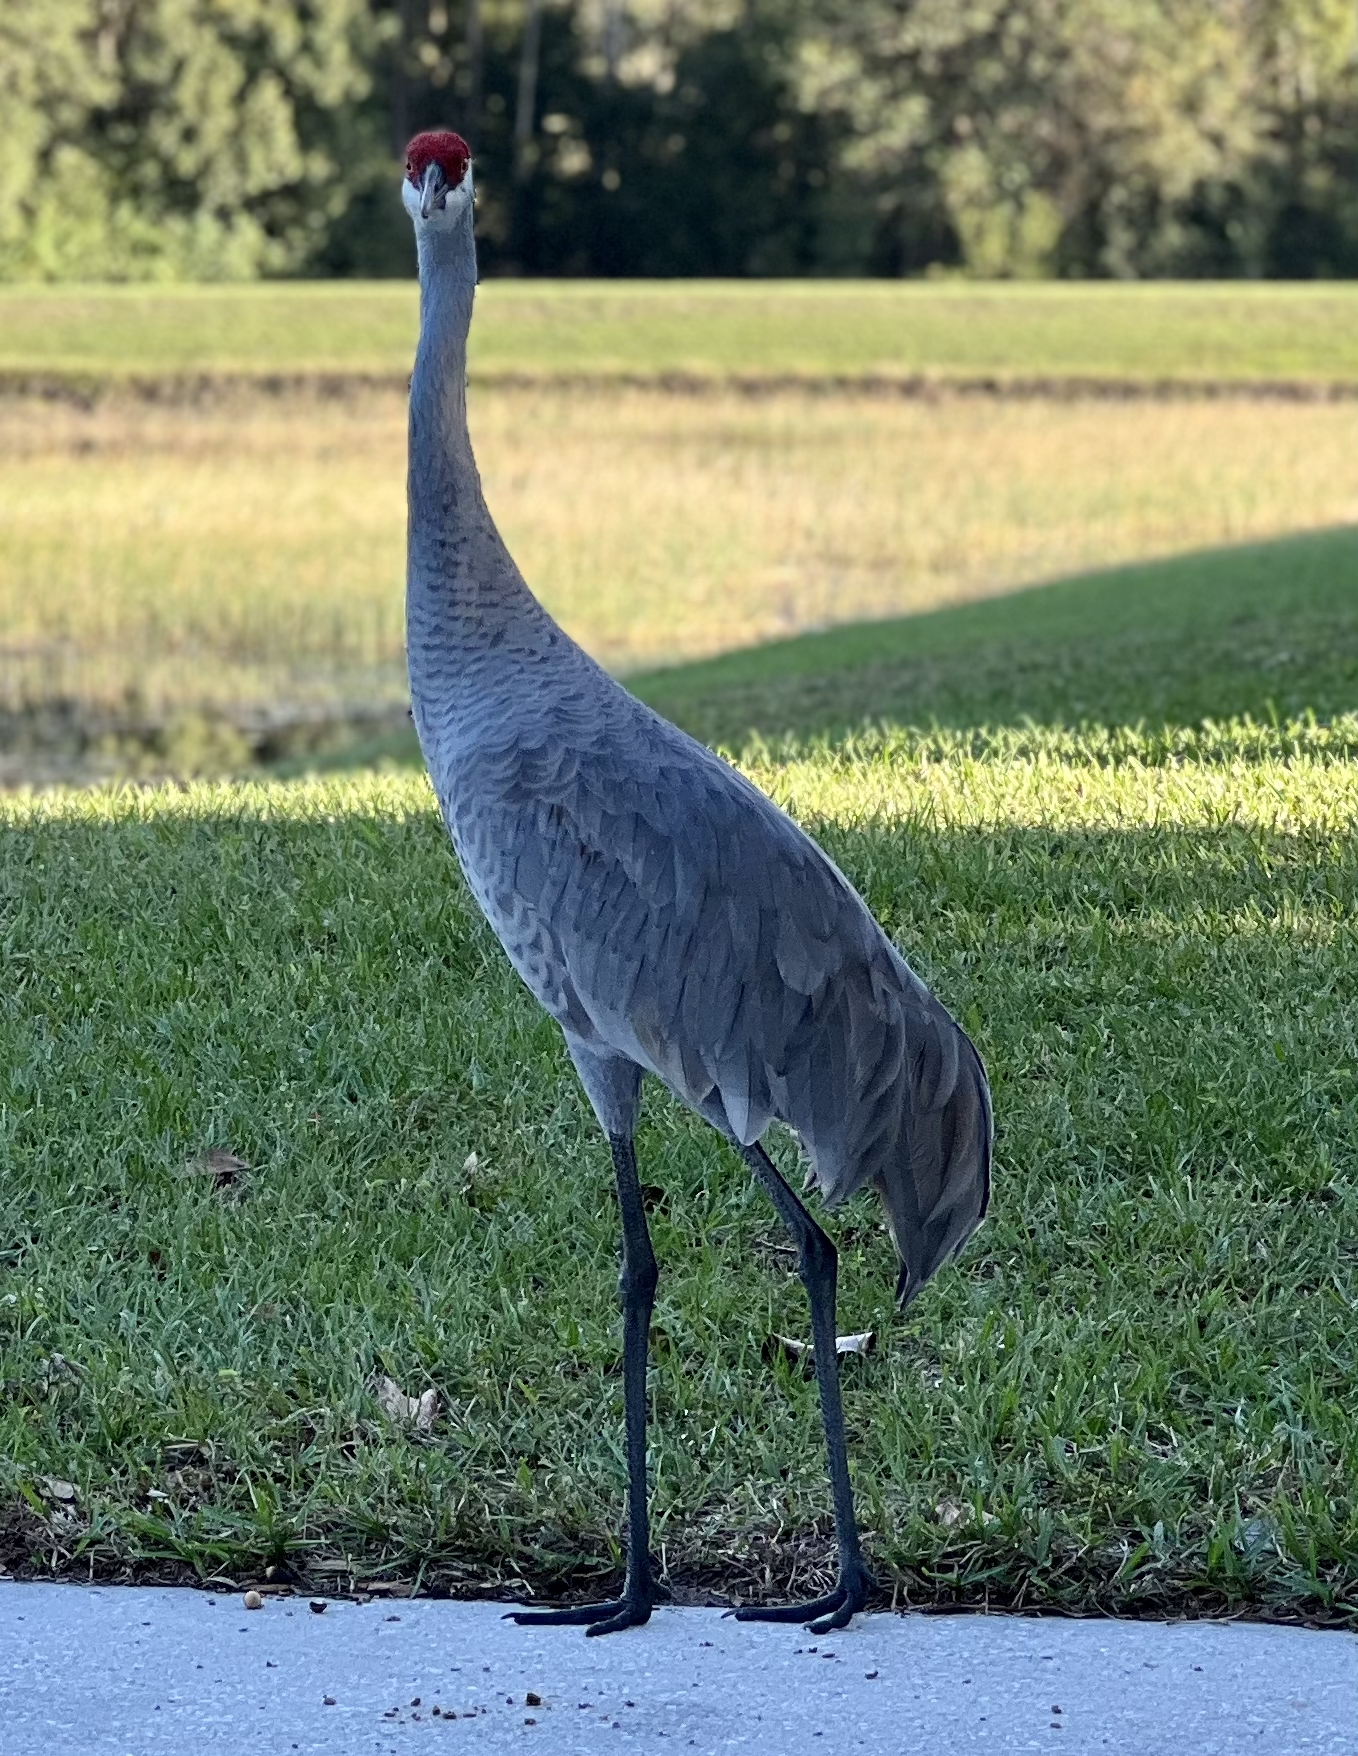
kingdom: Animalia
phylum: Chordata
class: Aves
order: Gruiformes
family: Gruidae
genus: Grus
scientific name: Grus canadensis
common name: Sandhill crane
